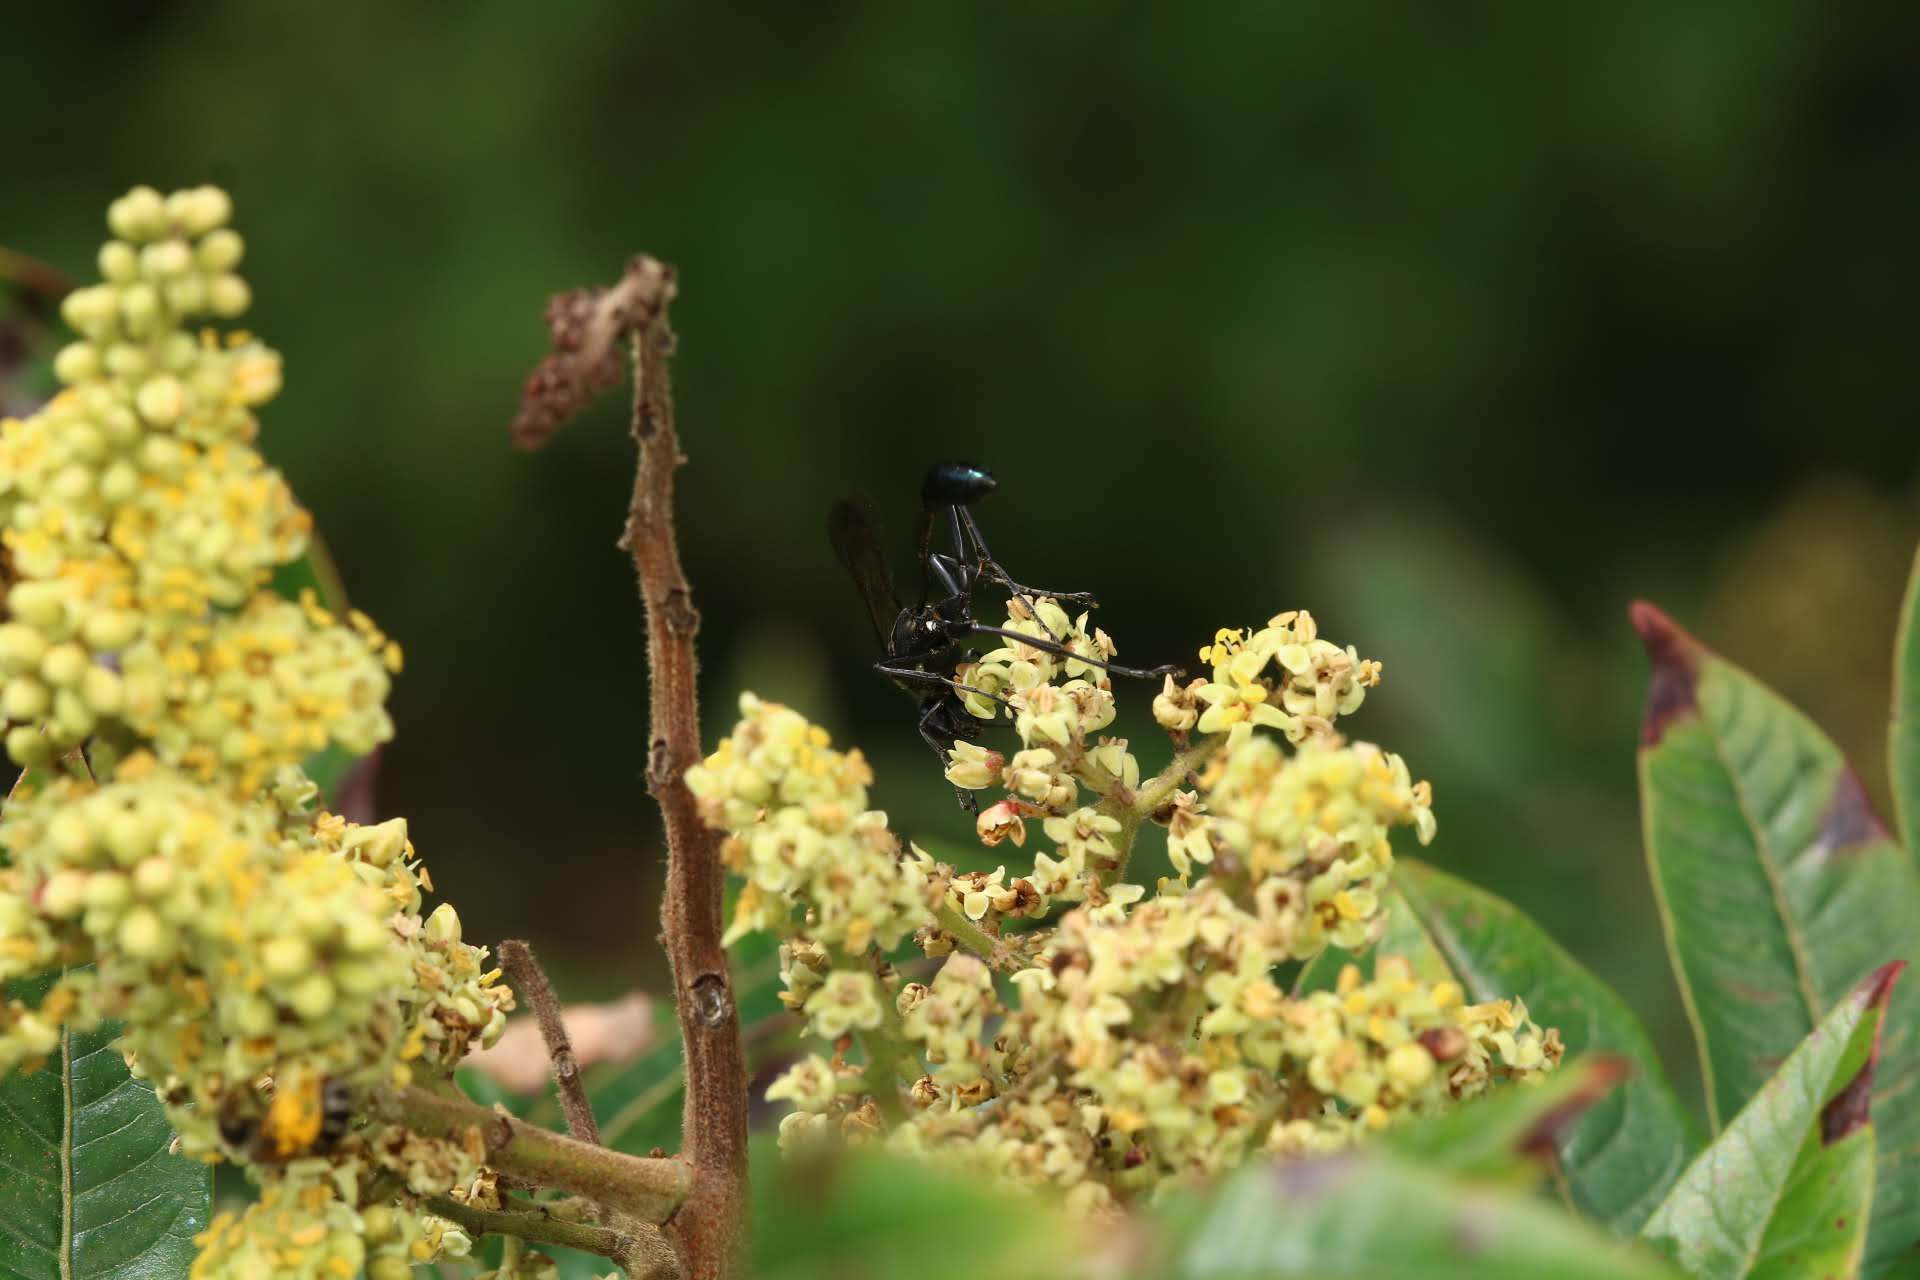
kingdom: Animalia
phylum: Arthropoda
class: Insecta
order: Hymenoptera
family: Sphecidae
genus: Eremnophila
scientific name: Eremnophila aureonotata
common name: Gold-marked thread-waisted wasp
